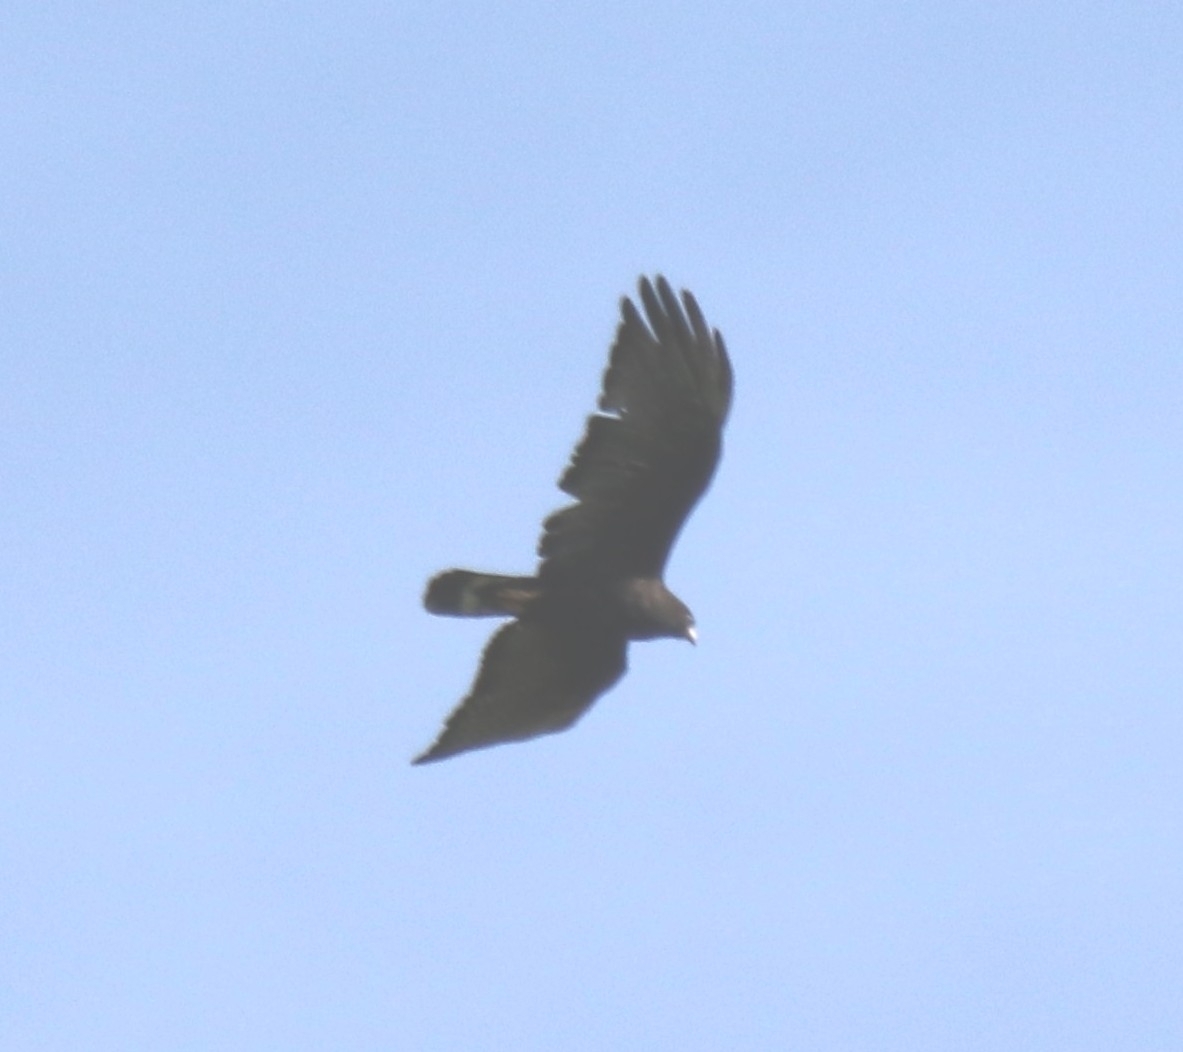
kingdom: Animalia
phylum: Chordata
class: Aves
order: Accipitriformes
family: Accipitridae
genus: Buteo
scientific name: Buteo albonotatus
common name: Zone-tailed hawk
